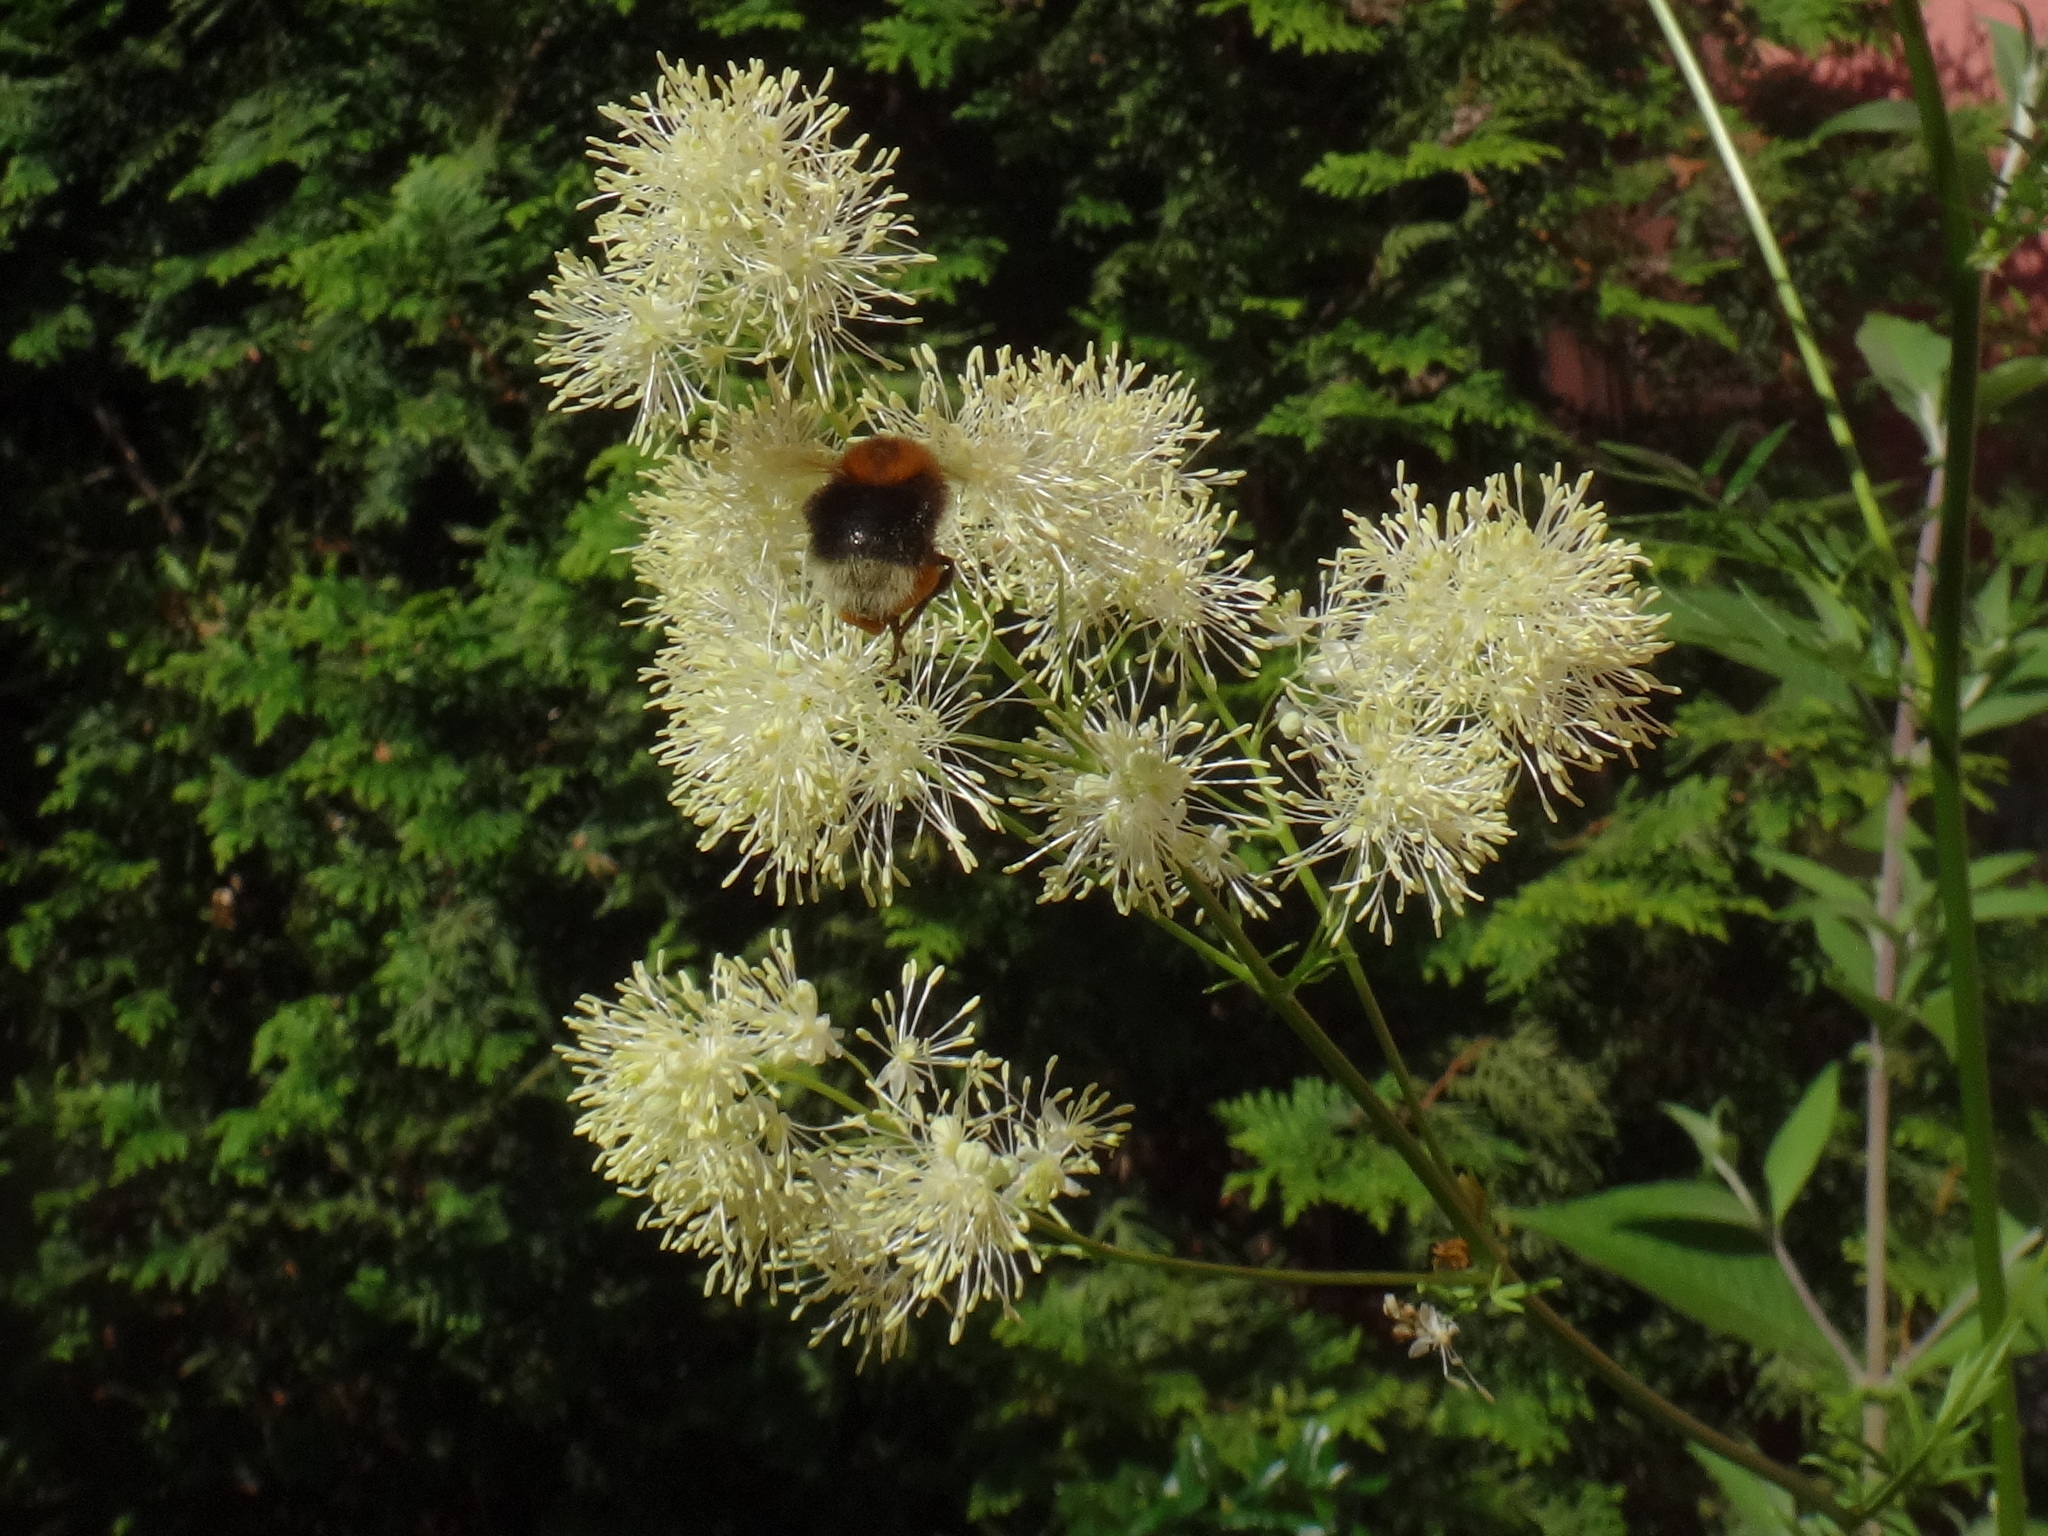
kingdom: Plantae
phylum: Tracheophyta
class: Magnoliopsida
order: Ranunculales
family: Ranunculaceae
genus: Thalictrum
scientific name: Thalictrum lucidum
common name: Shining meadow-rue
